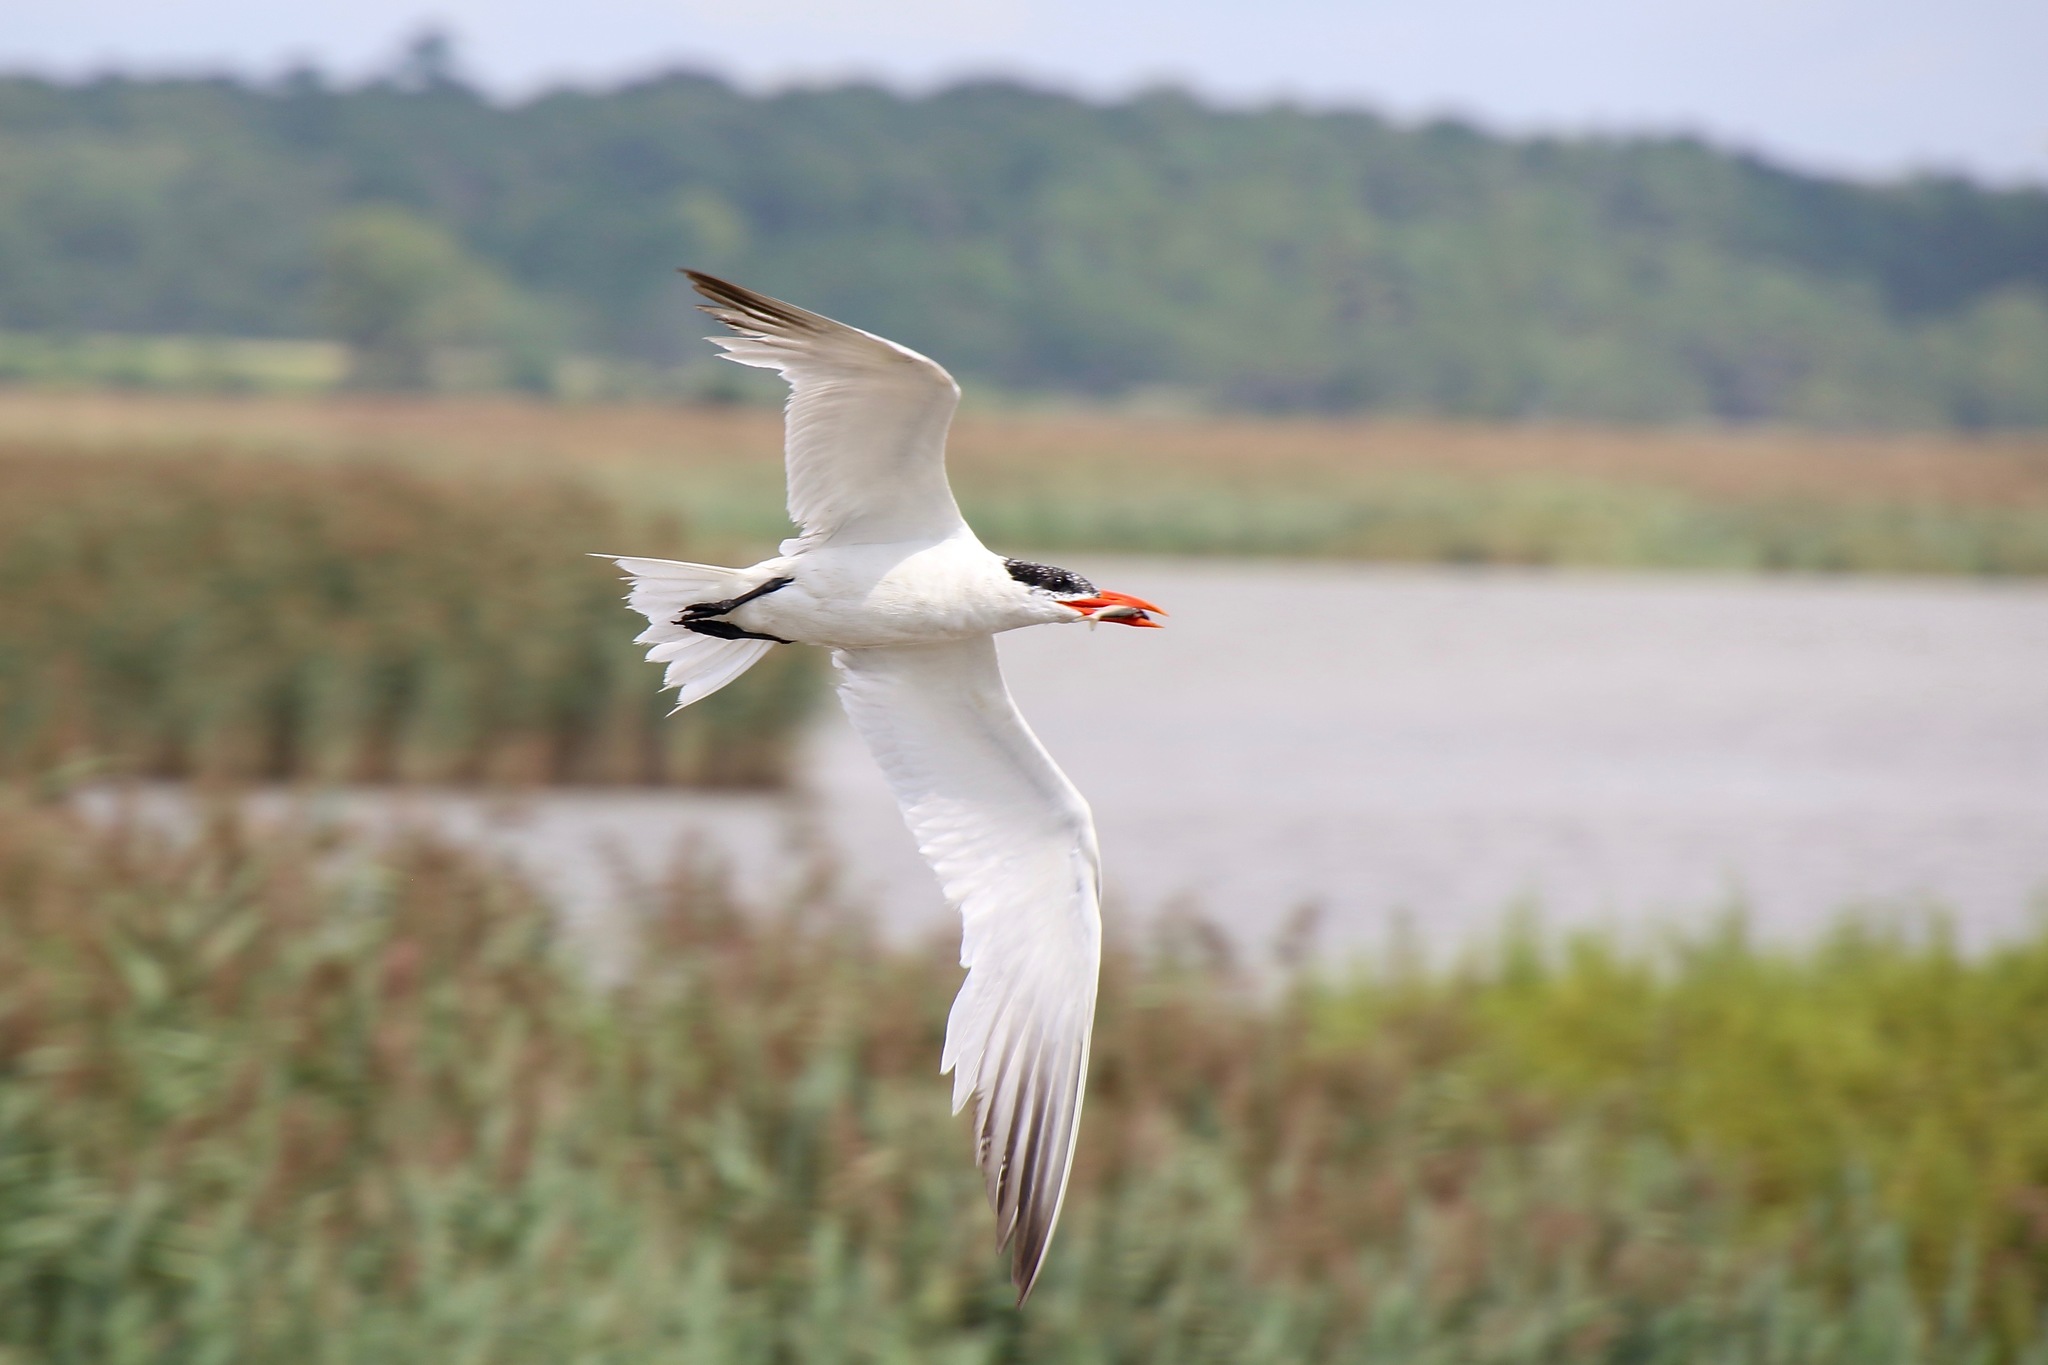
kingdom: Animalia
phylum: Chordata
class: Aves
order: Charadriiformes
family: Laridae
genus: Hydroprogne
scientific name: Hydroprogne caspia
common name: Caspian tern
